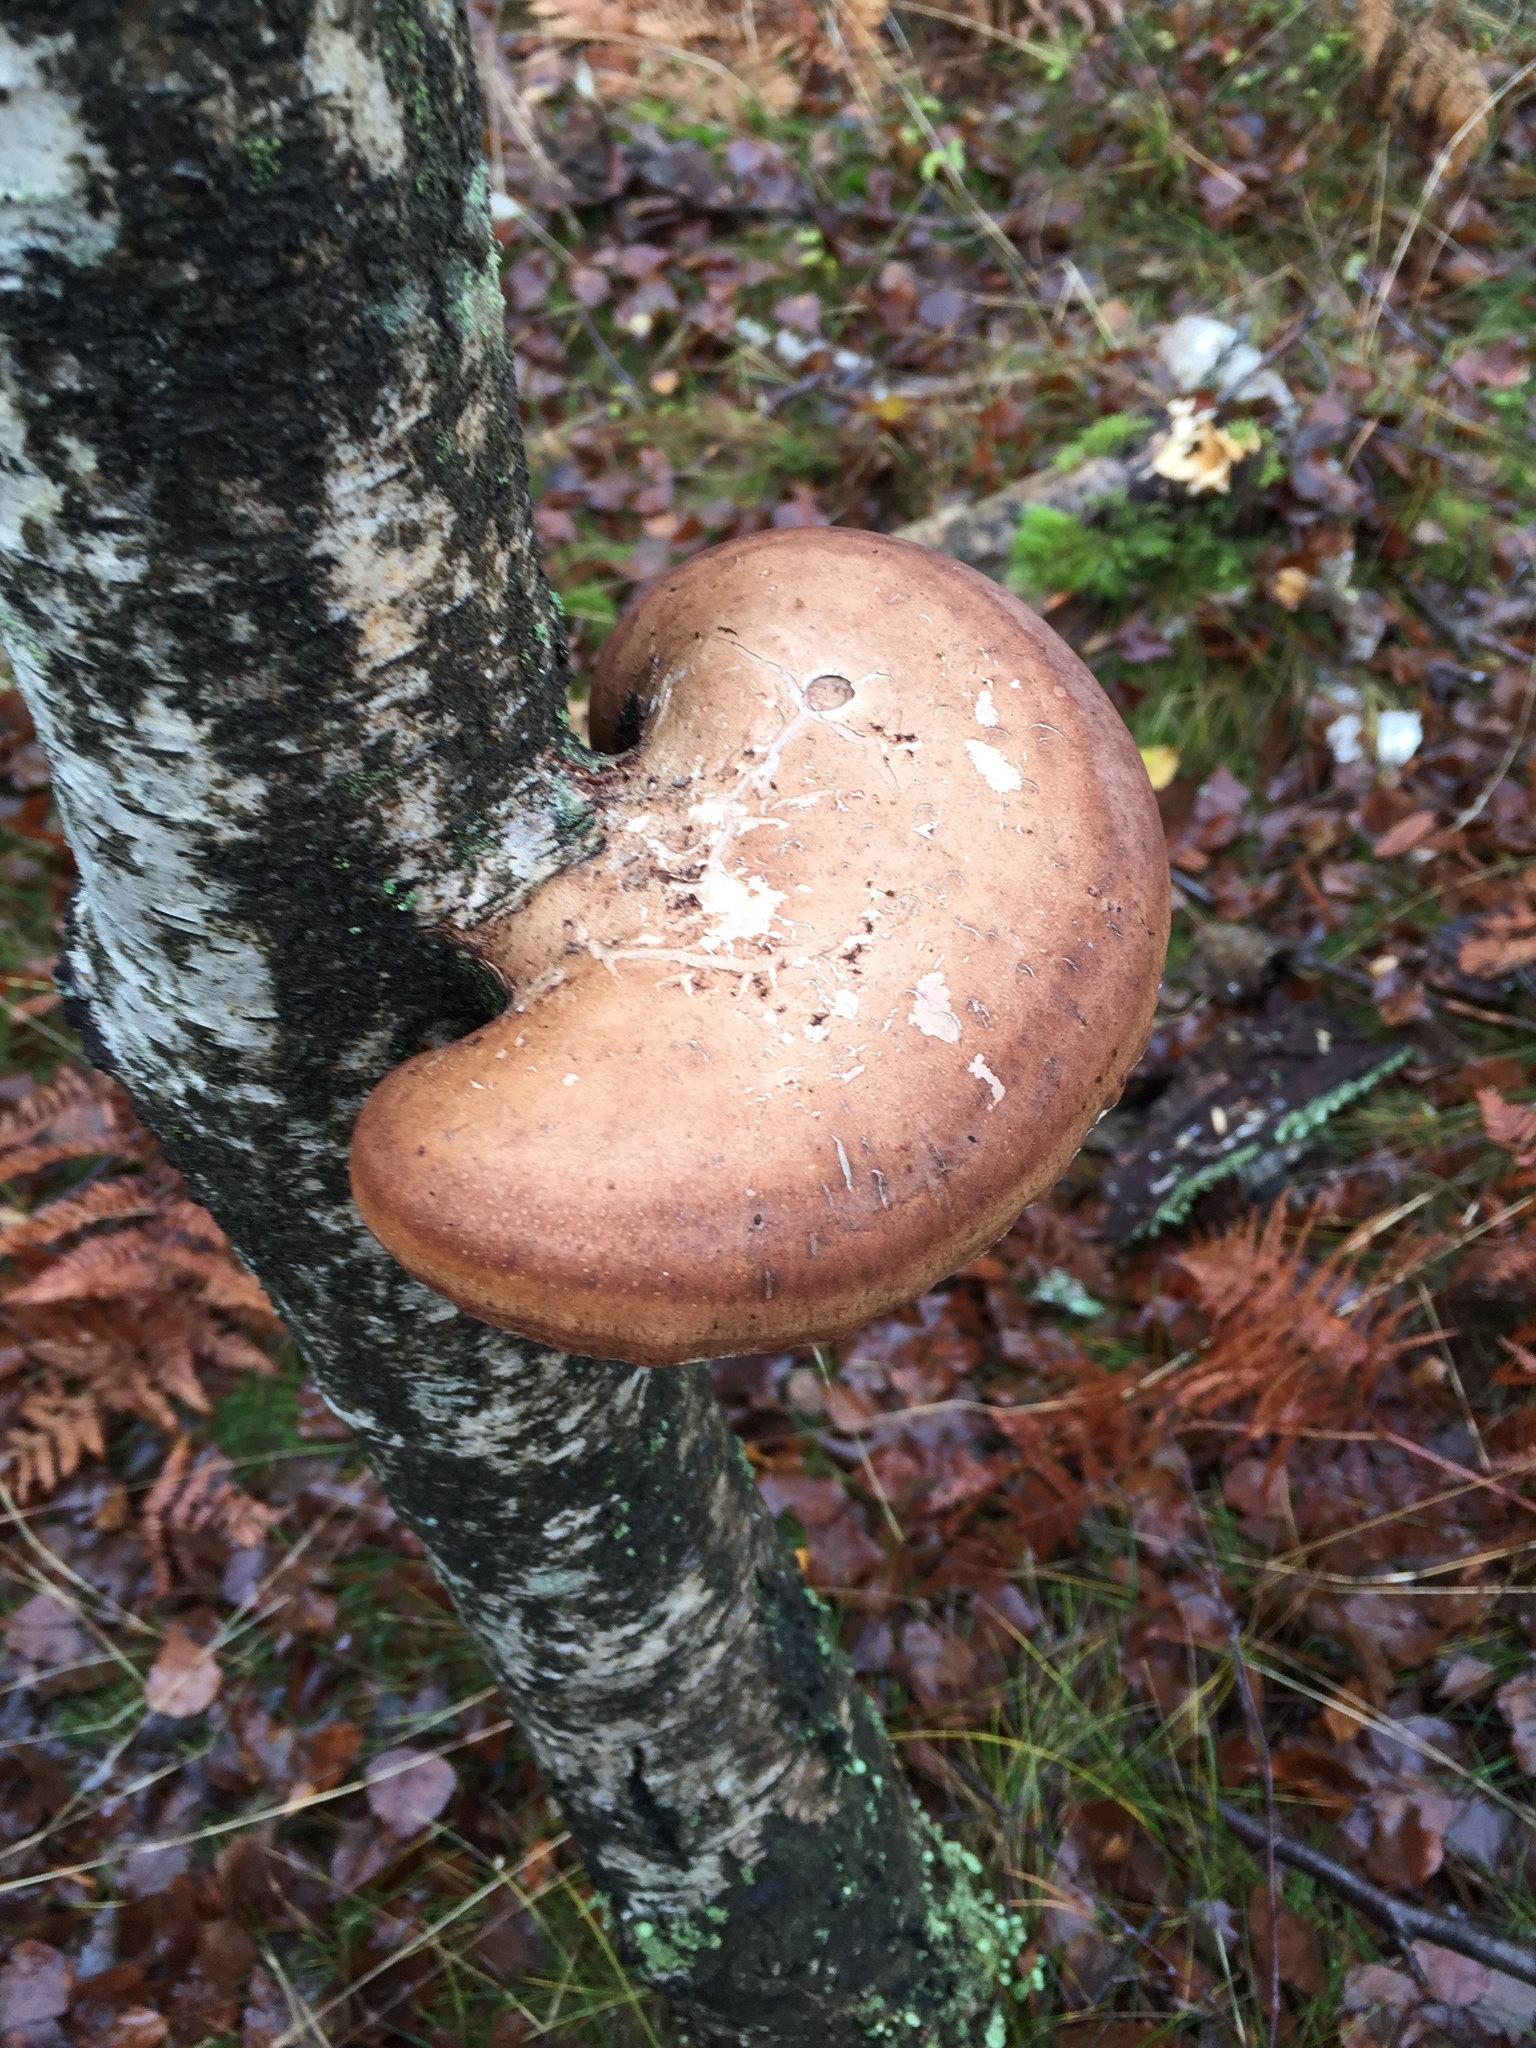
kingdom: Fungi
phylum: Basidiomycota
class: Agaricomycetes
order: Polyporales
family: Fomitopsidaceae
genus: Fomitopsis
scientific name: Fomitopsis betulina
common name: Birch polypore
